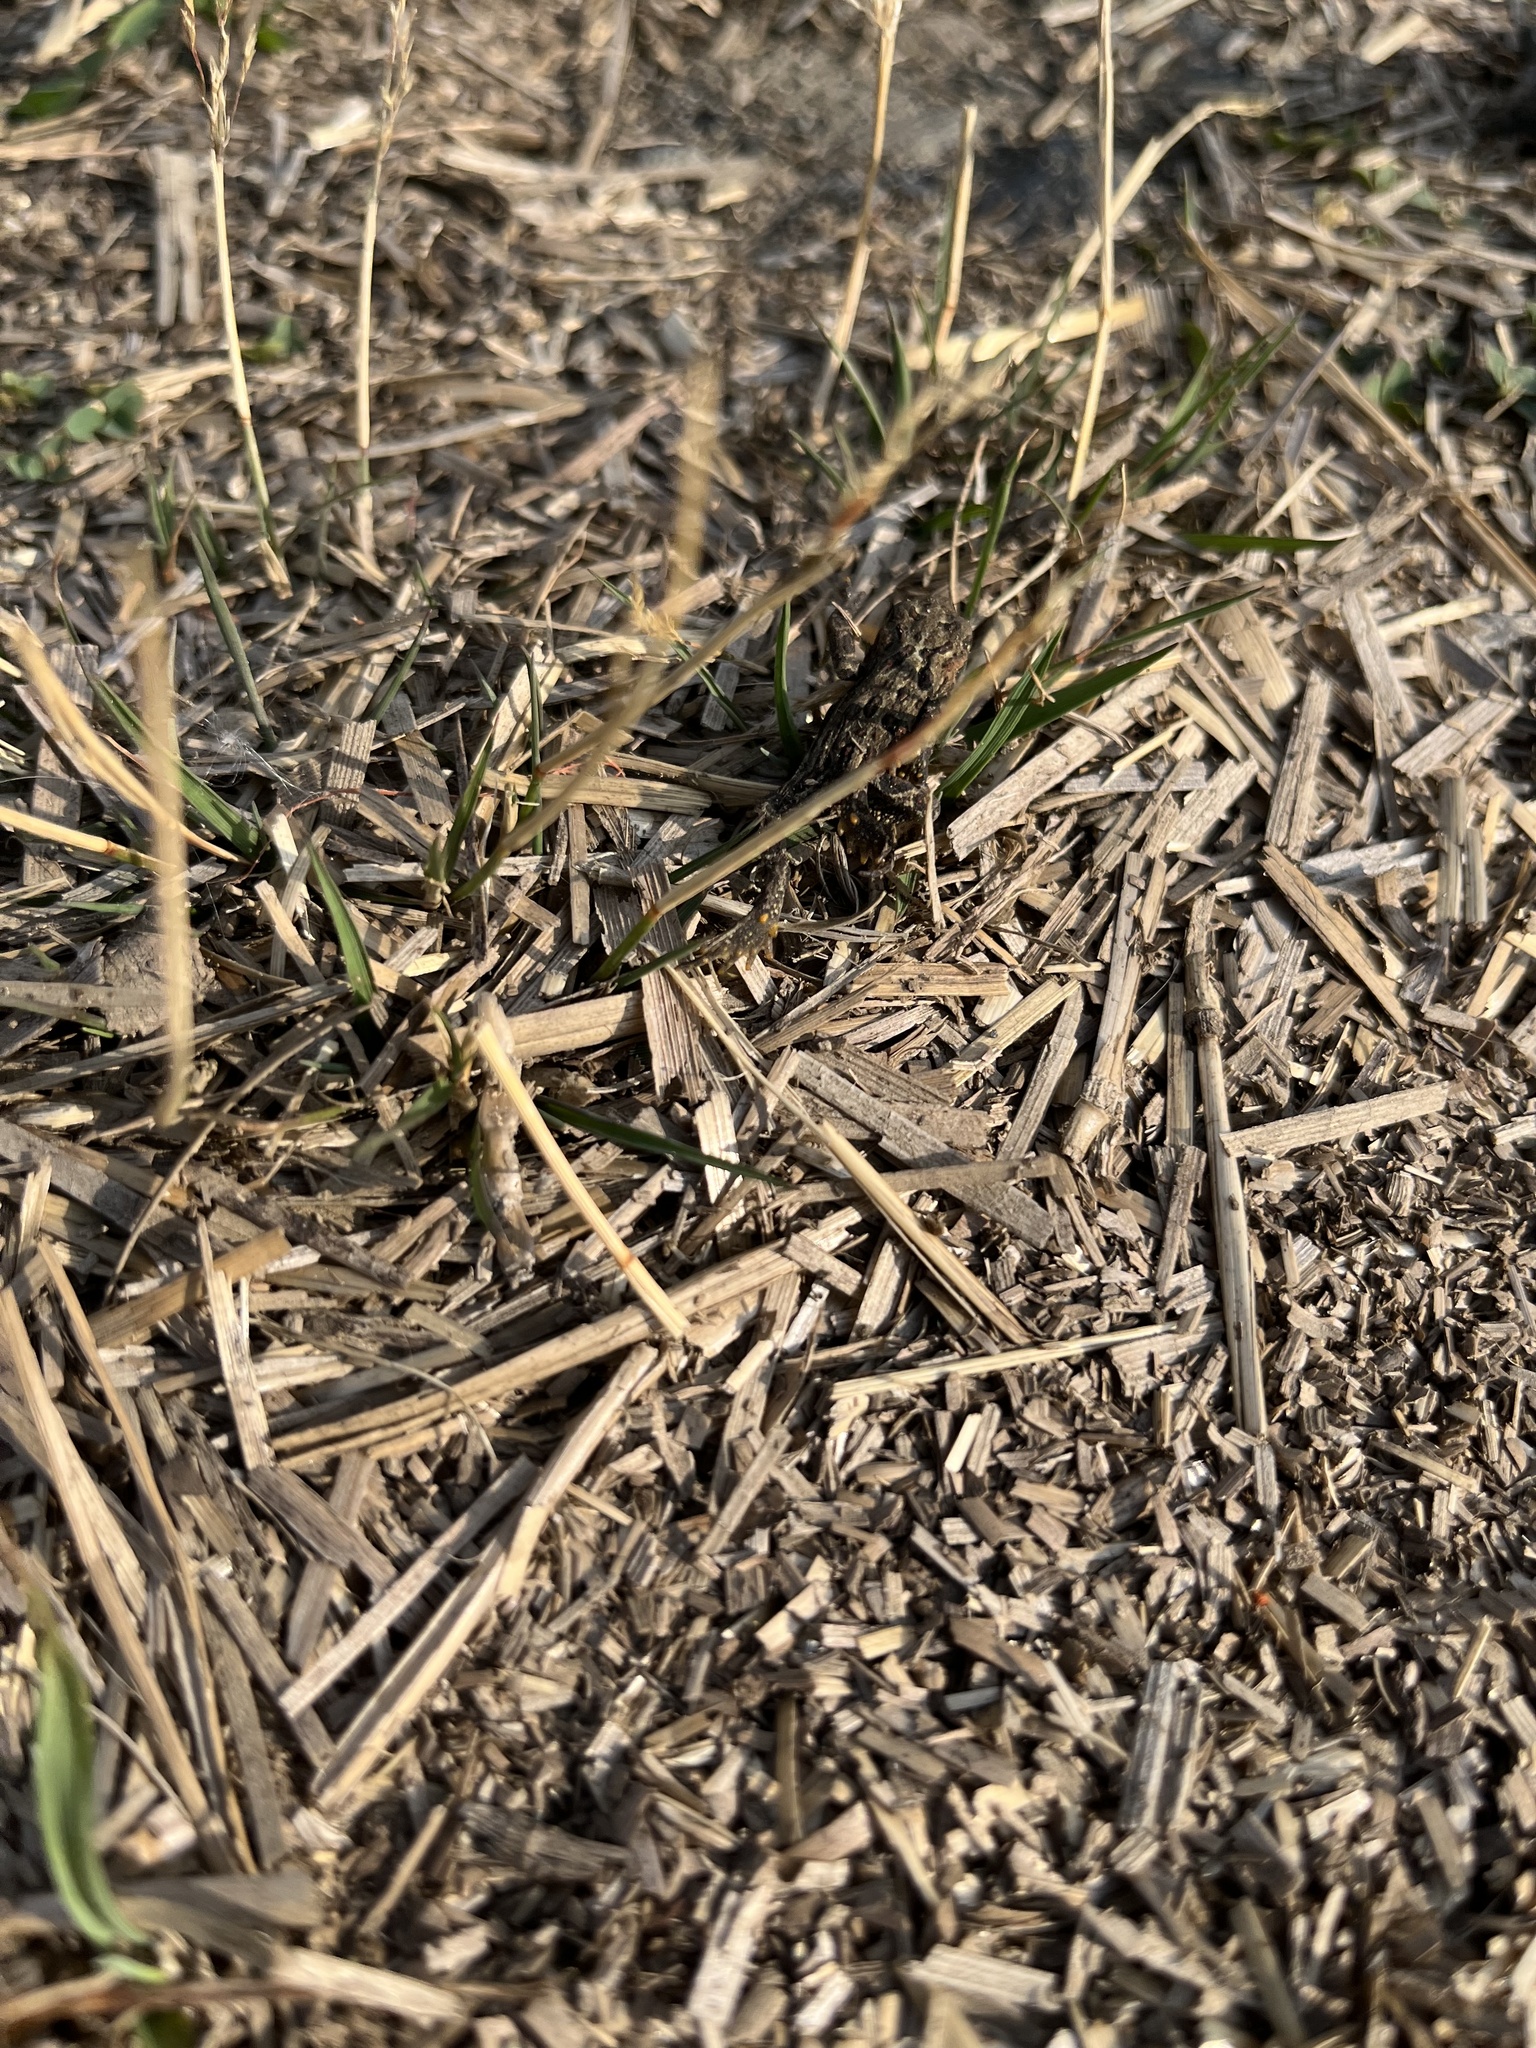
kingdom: Animalia
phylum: Chordata
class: Amphibia
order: Anura
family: Bufonidae
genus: Anaxyrus
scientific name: Anaxyrus boreas
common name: Western toad
